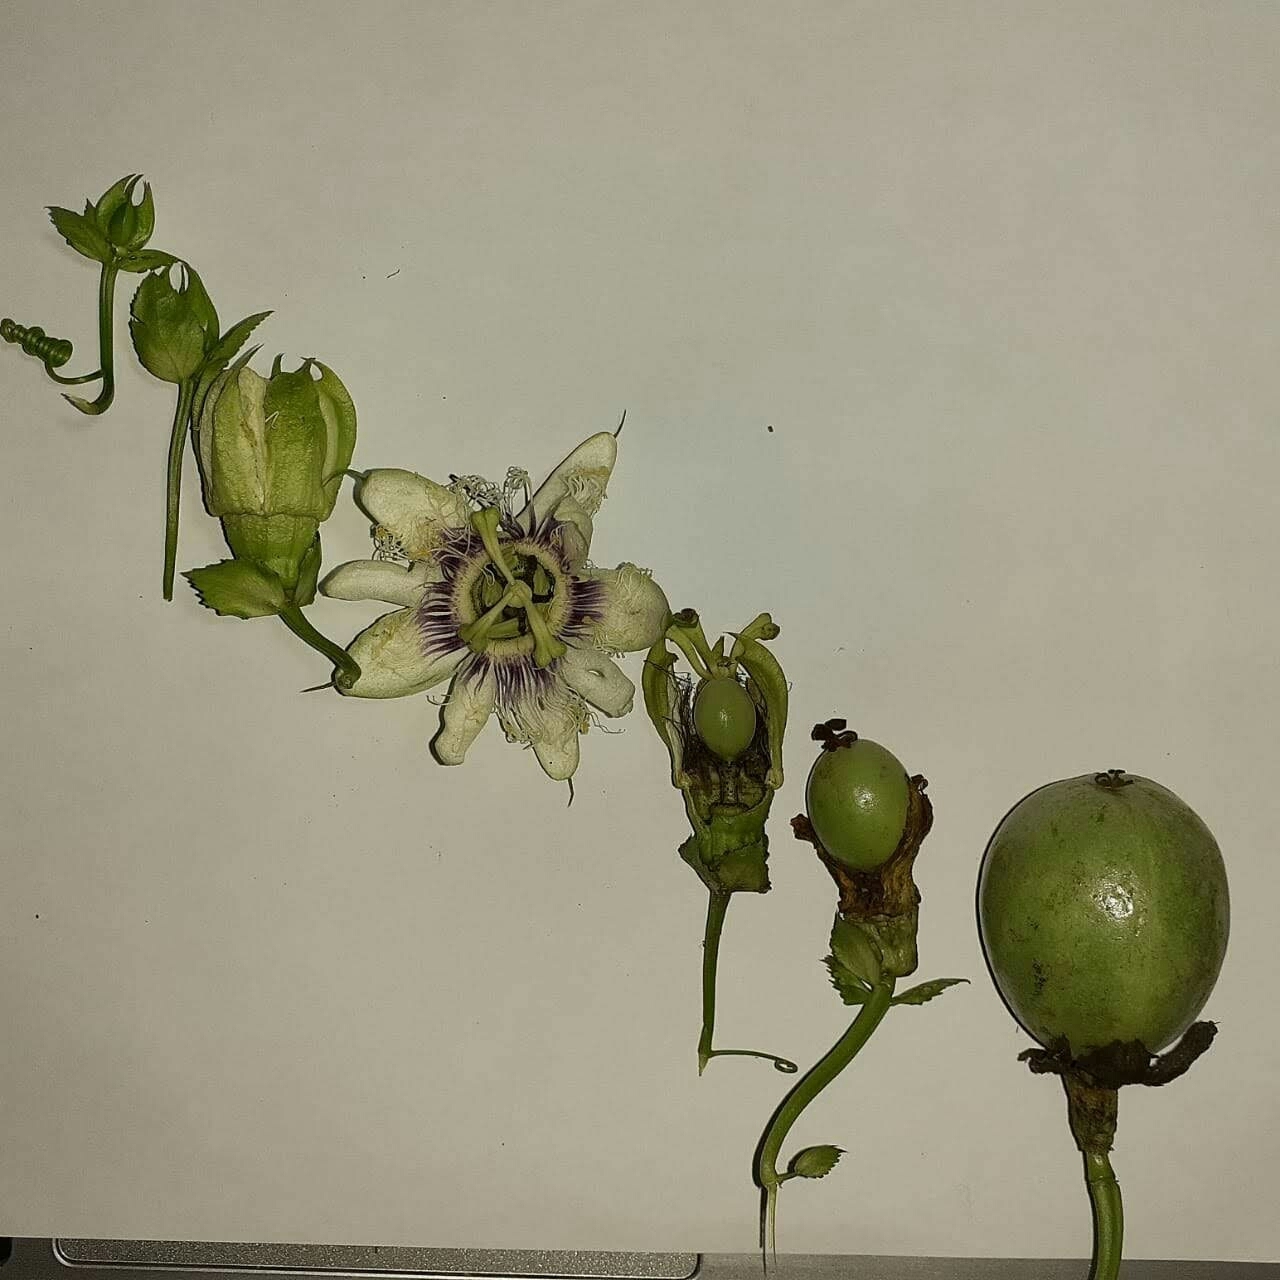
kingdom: Plantae
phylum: Tracheophyta
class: Magnoliopsida
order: Malpighiales
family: Passifloraceae
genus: Passiflora
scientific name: Passiflora edulis
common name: Purple granadilla
